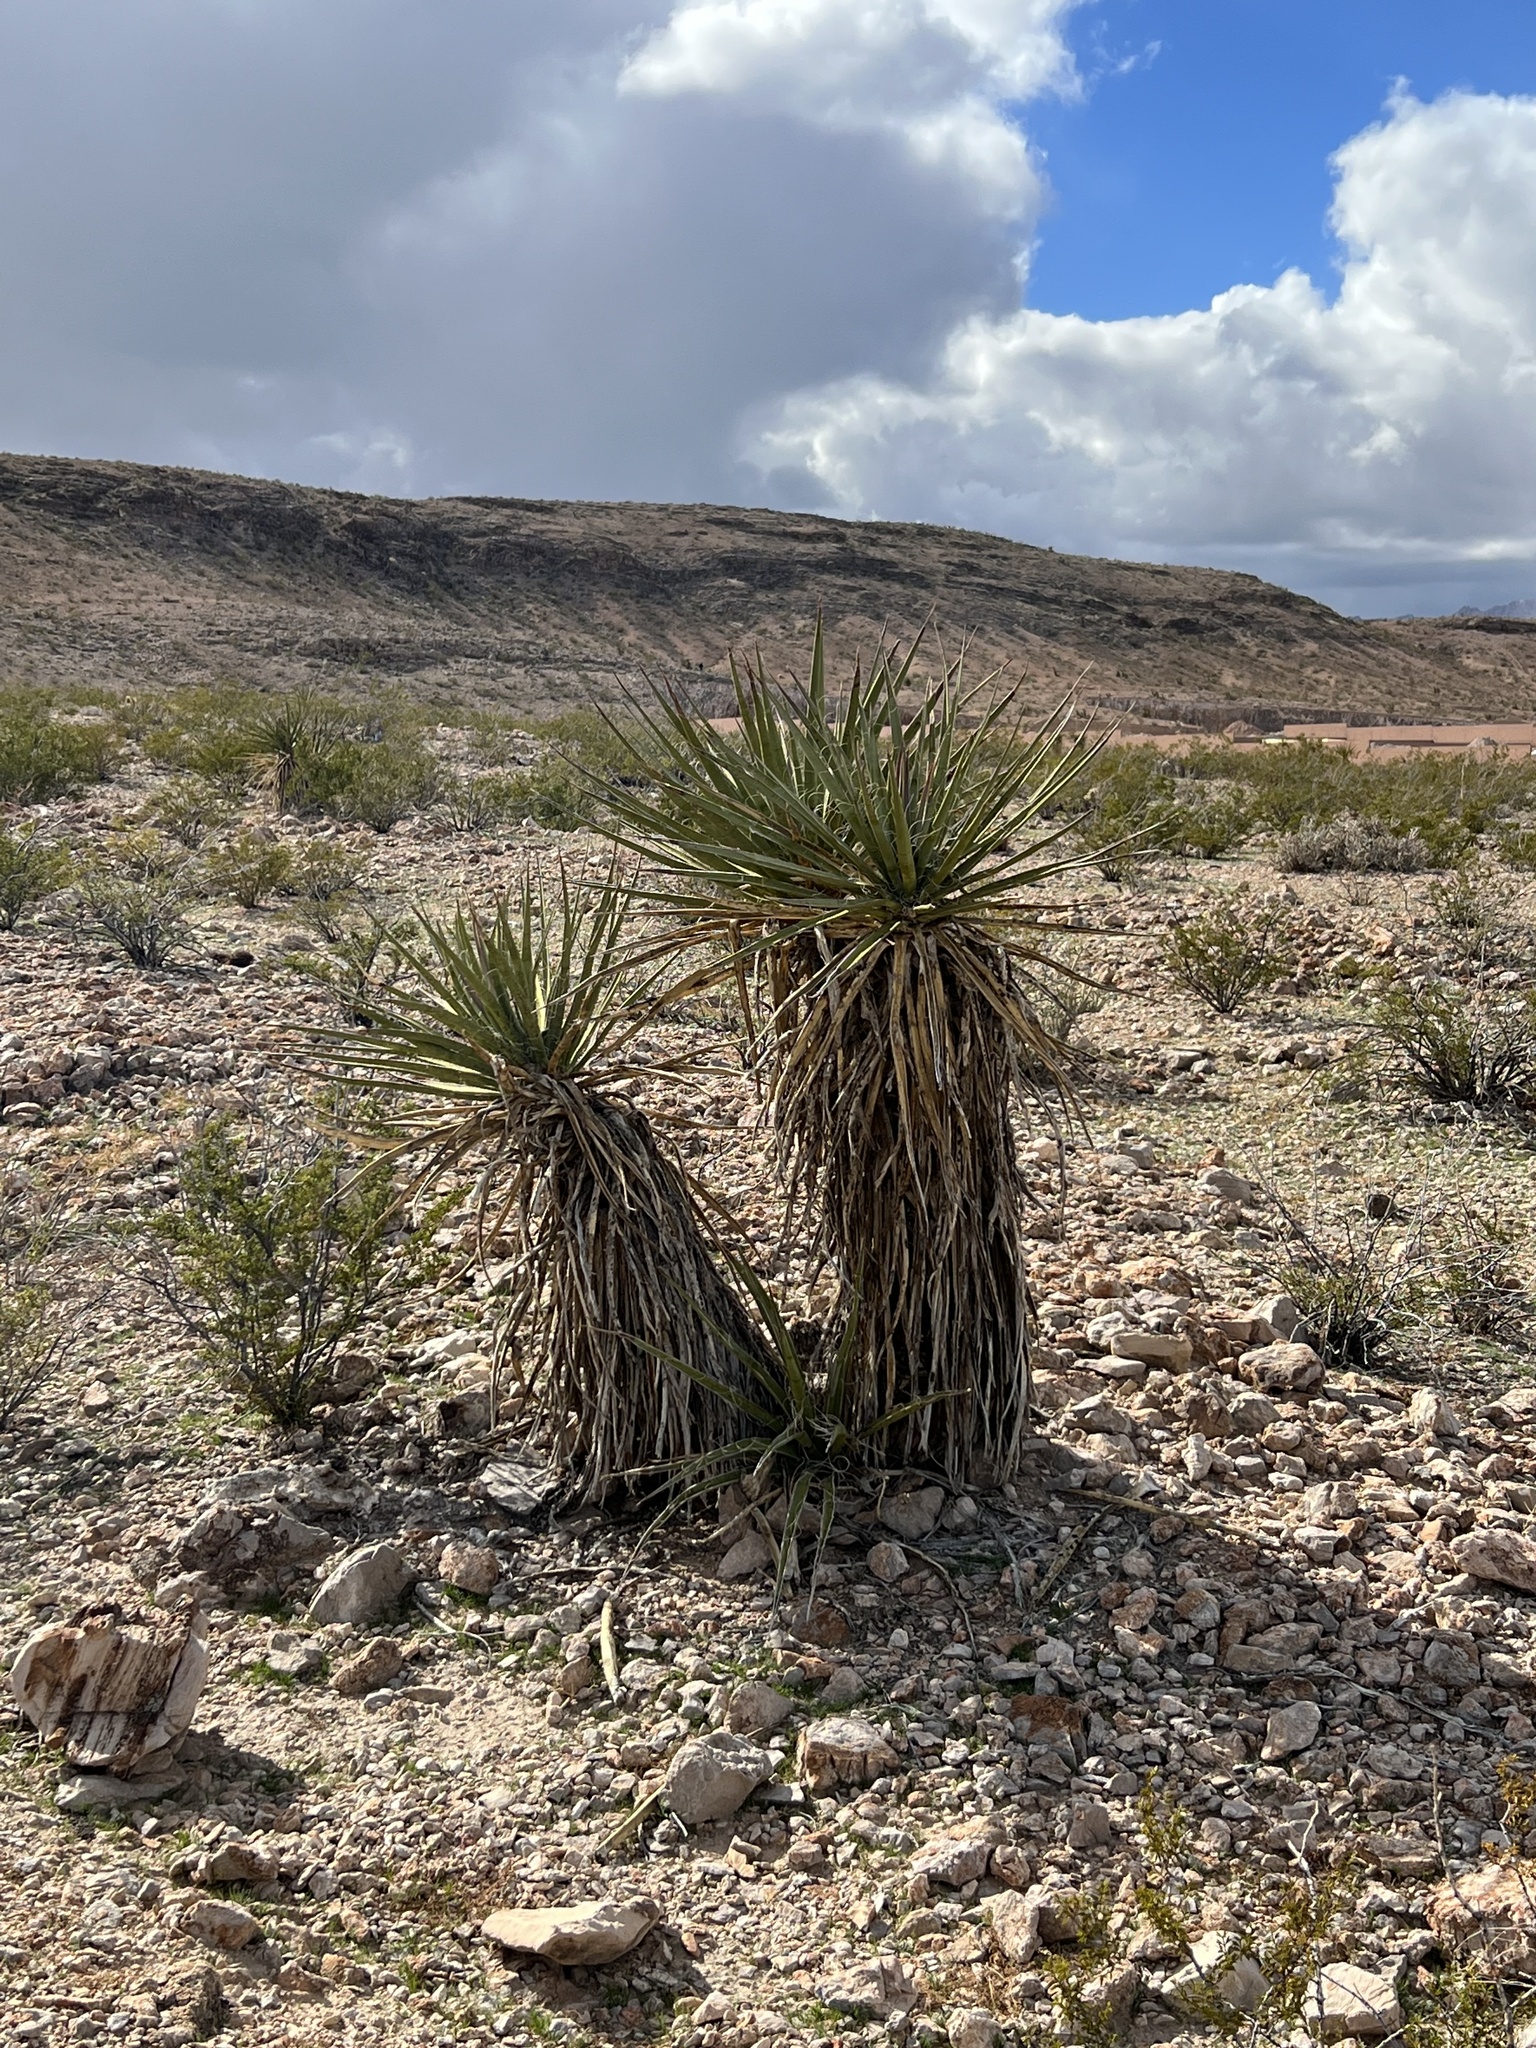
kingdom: Plantae
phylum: Tracheophyta
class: Liliopsida
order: Asparagales
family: Asparagaceae
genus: Yucca
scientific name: Yucca schidigera
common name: Mojave yucca
